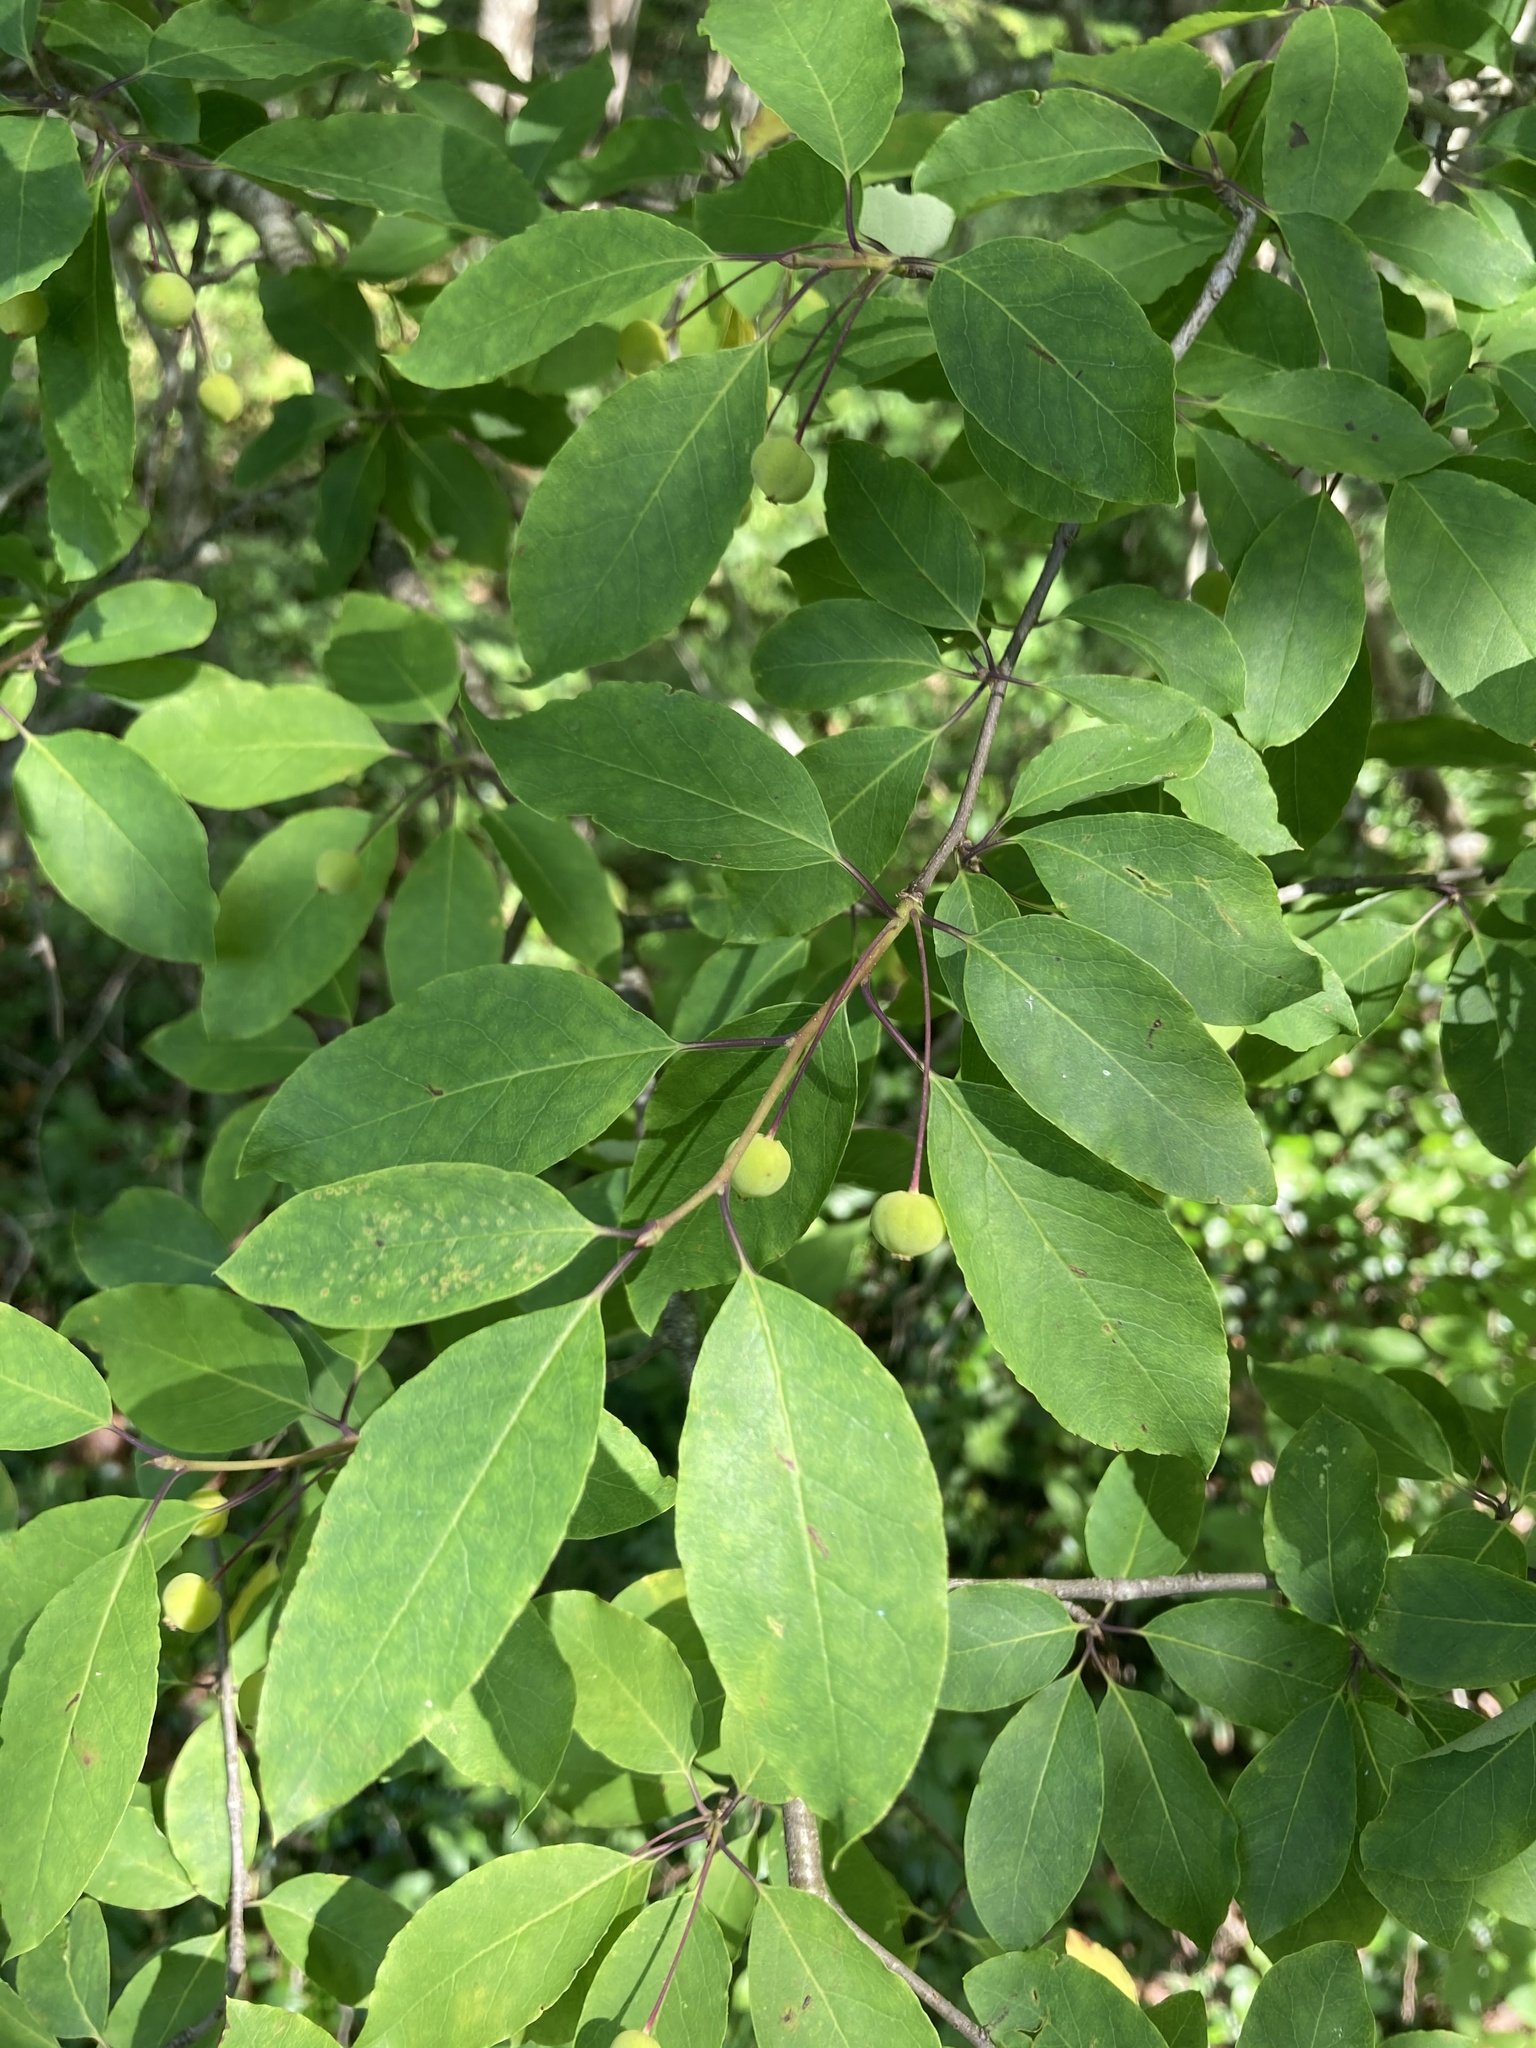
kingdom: Plantae
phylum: Tracheophyta
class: Magnoliopsida
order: Aquifoliales
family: Aquifoliaceae
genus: Ilex
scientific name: Ilex mucronata
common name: Catberry
